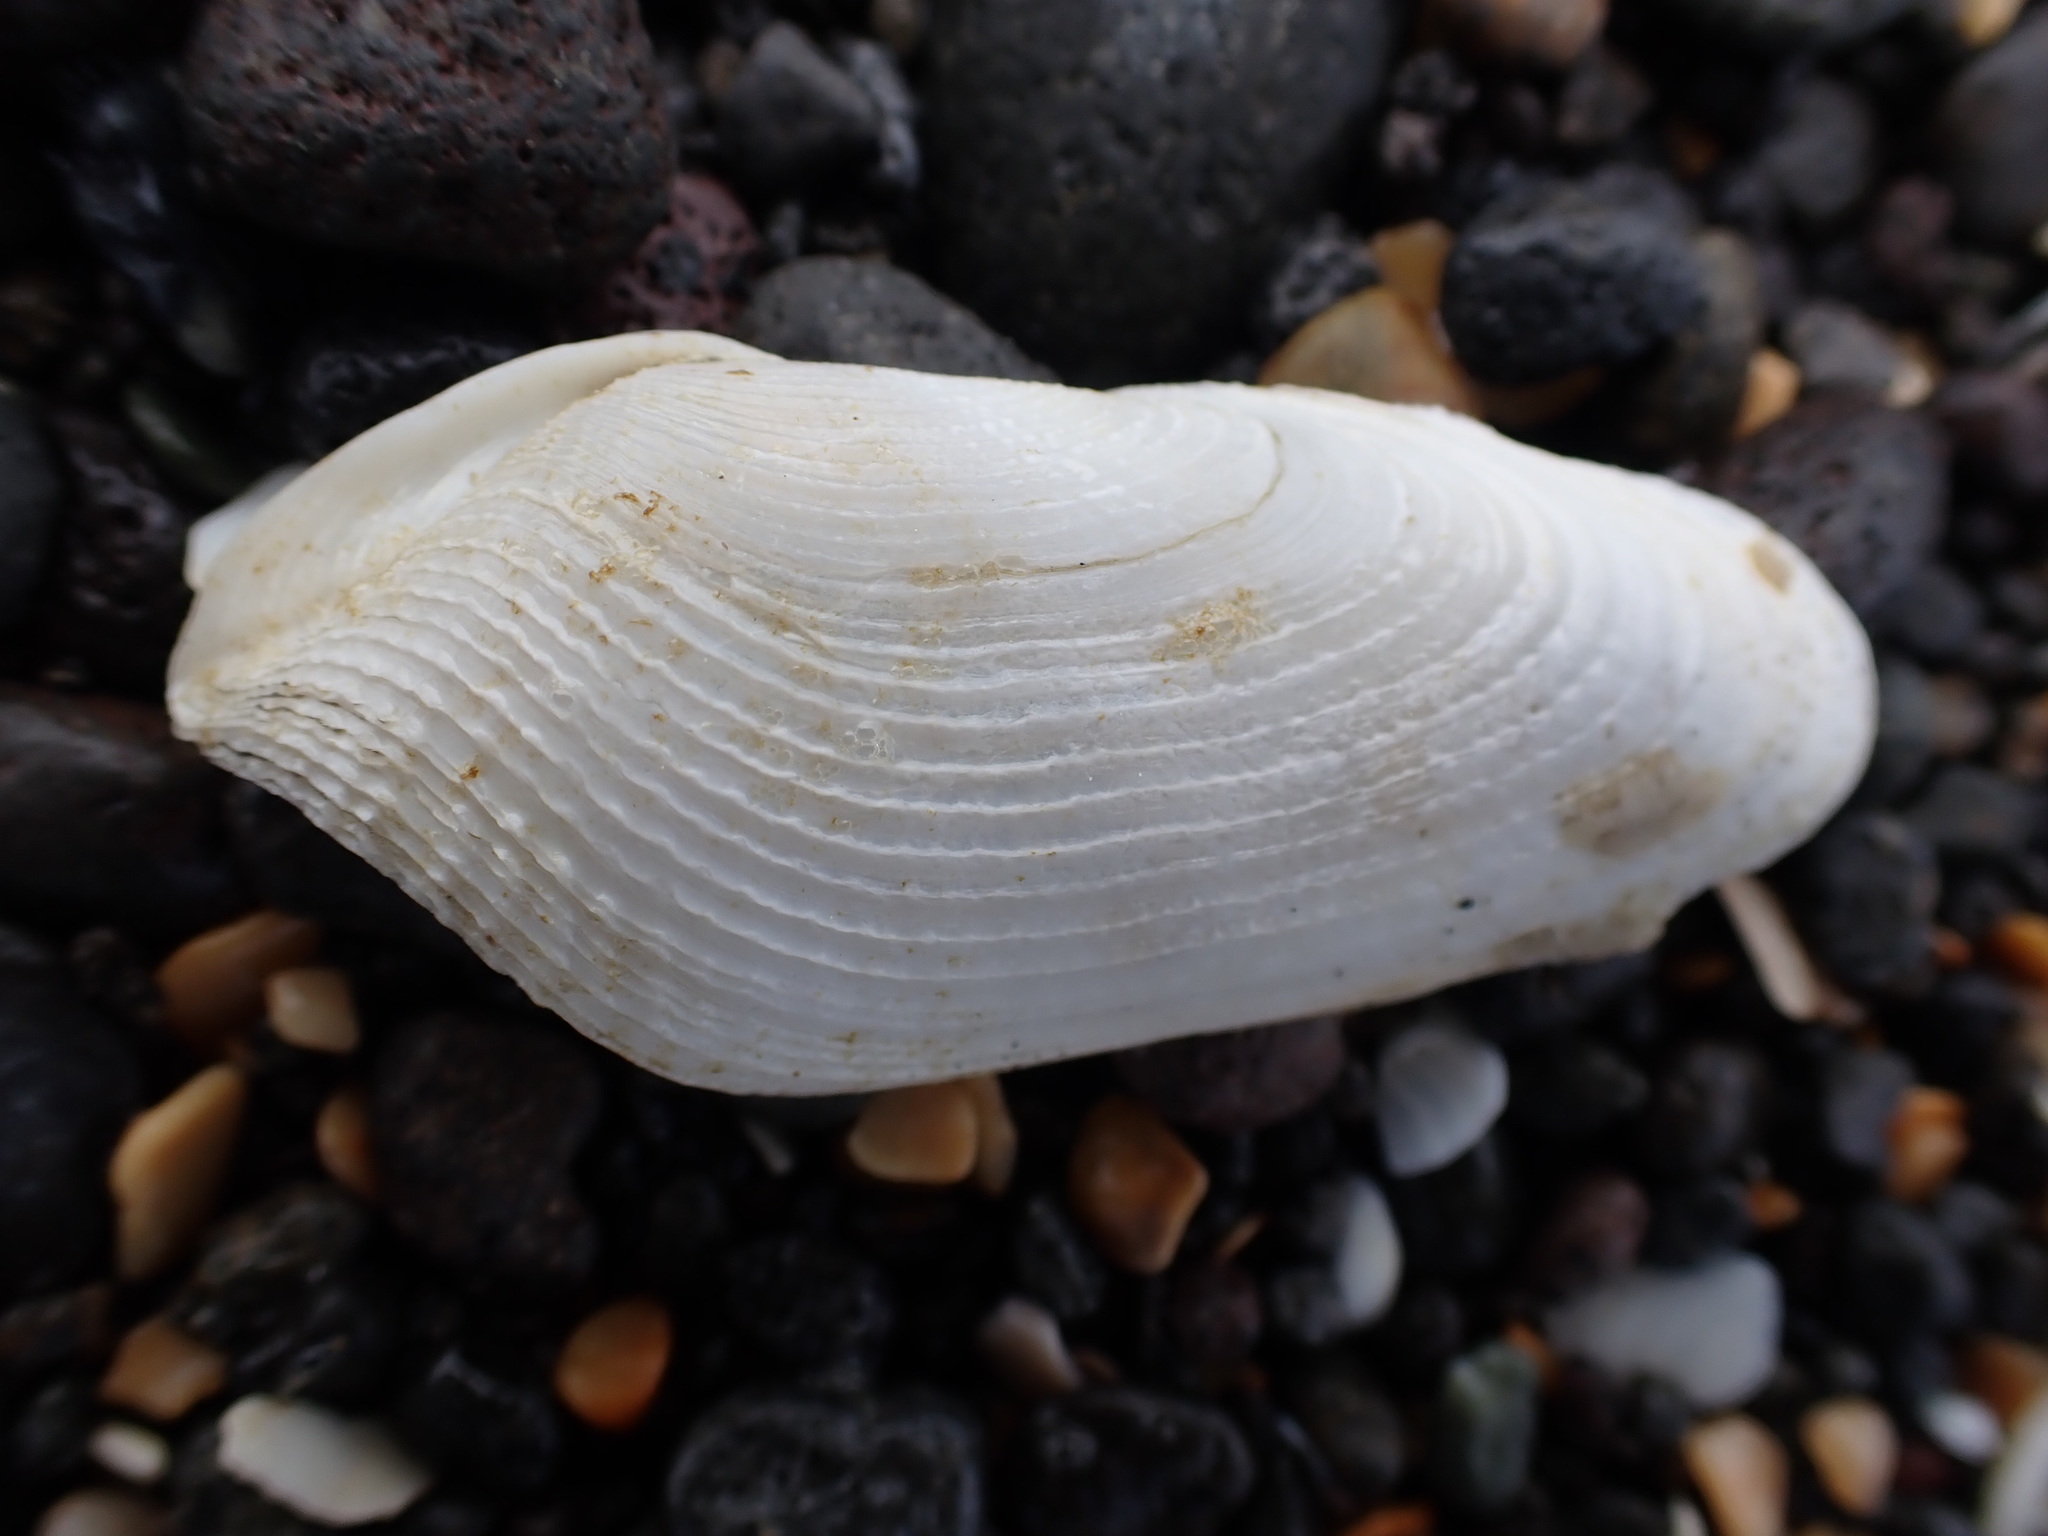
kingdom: Animalia
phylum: Mollusca
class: Bivalvia
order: Myida
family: Pholadidae
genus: Barnea
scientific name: Barnea similis
